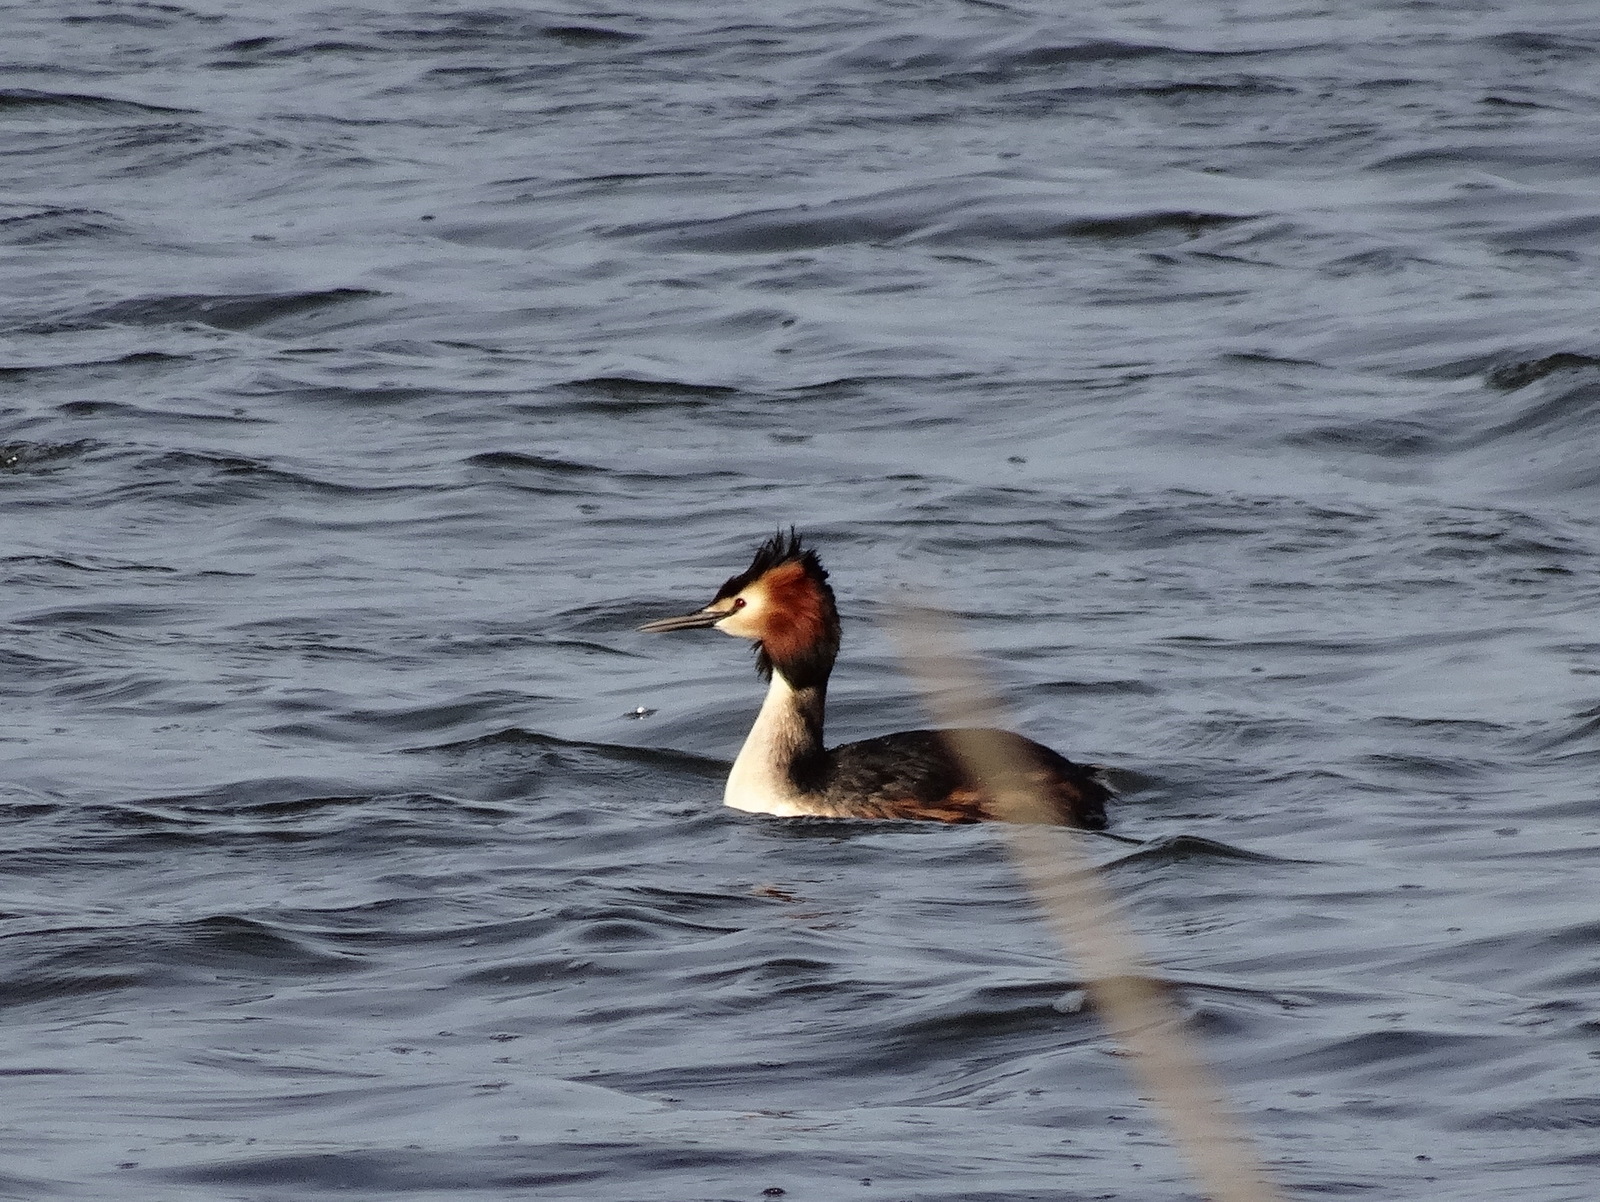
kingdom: Animalia
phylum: Chordata
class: Aves
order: Podicipediformes
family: Podicipedidae
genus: Podiceps
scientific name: Podiceps cristatus
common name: Great crested grebe
